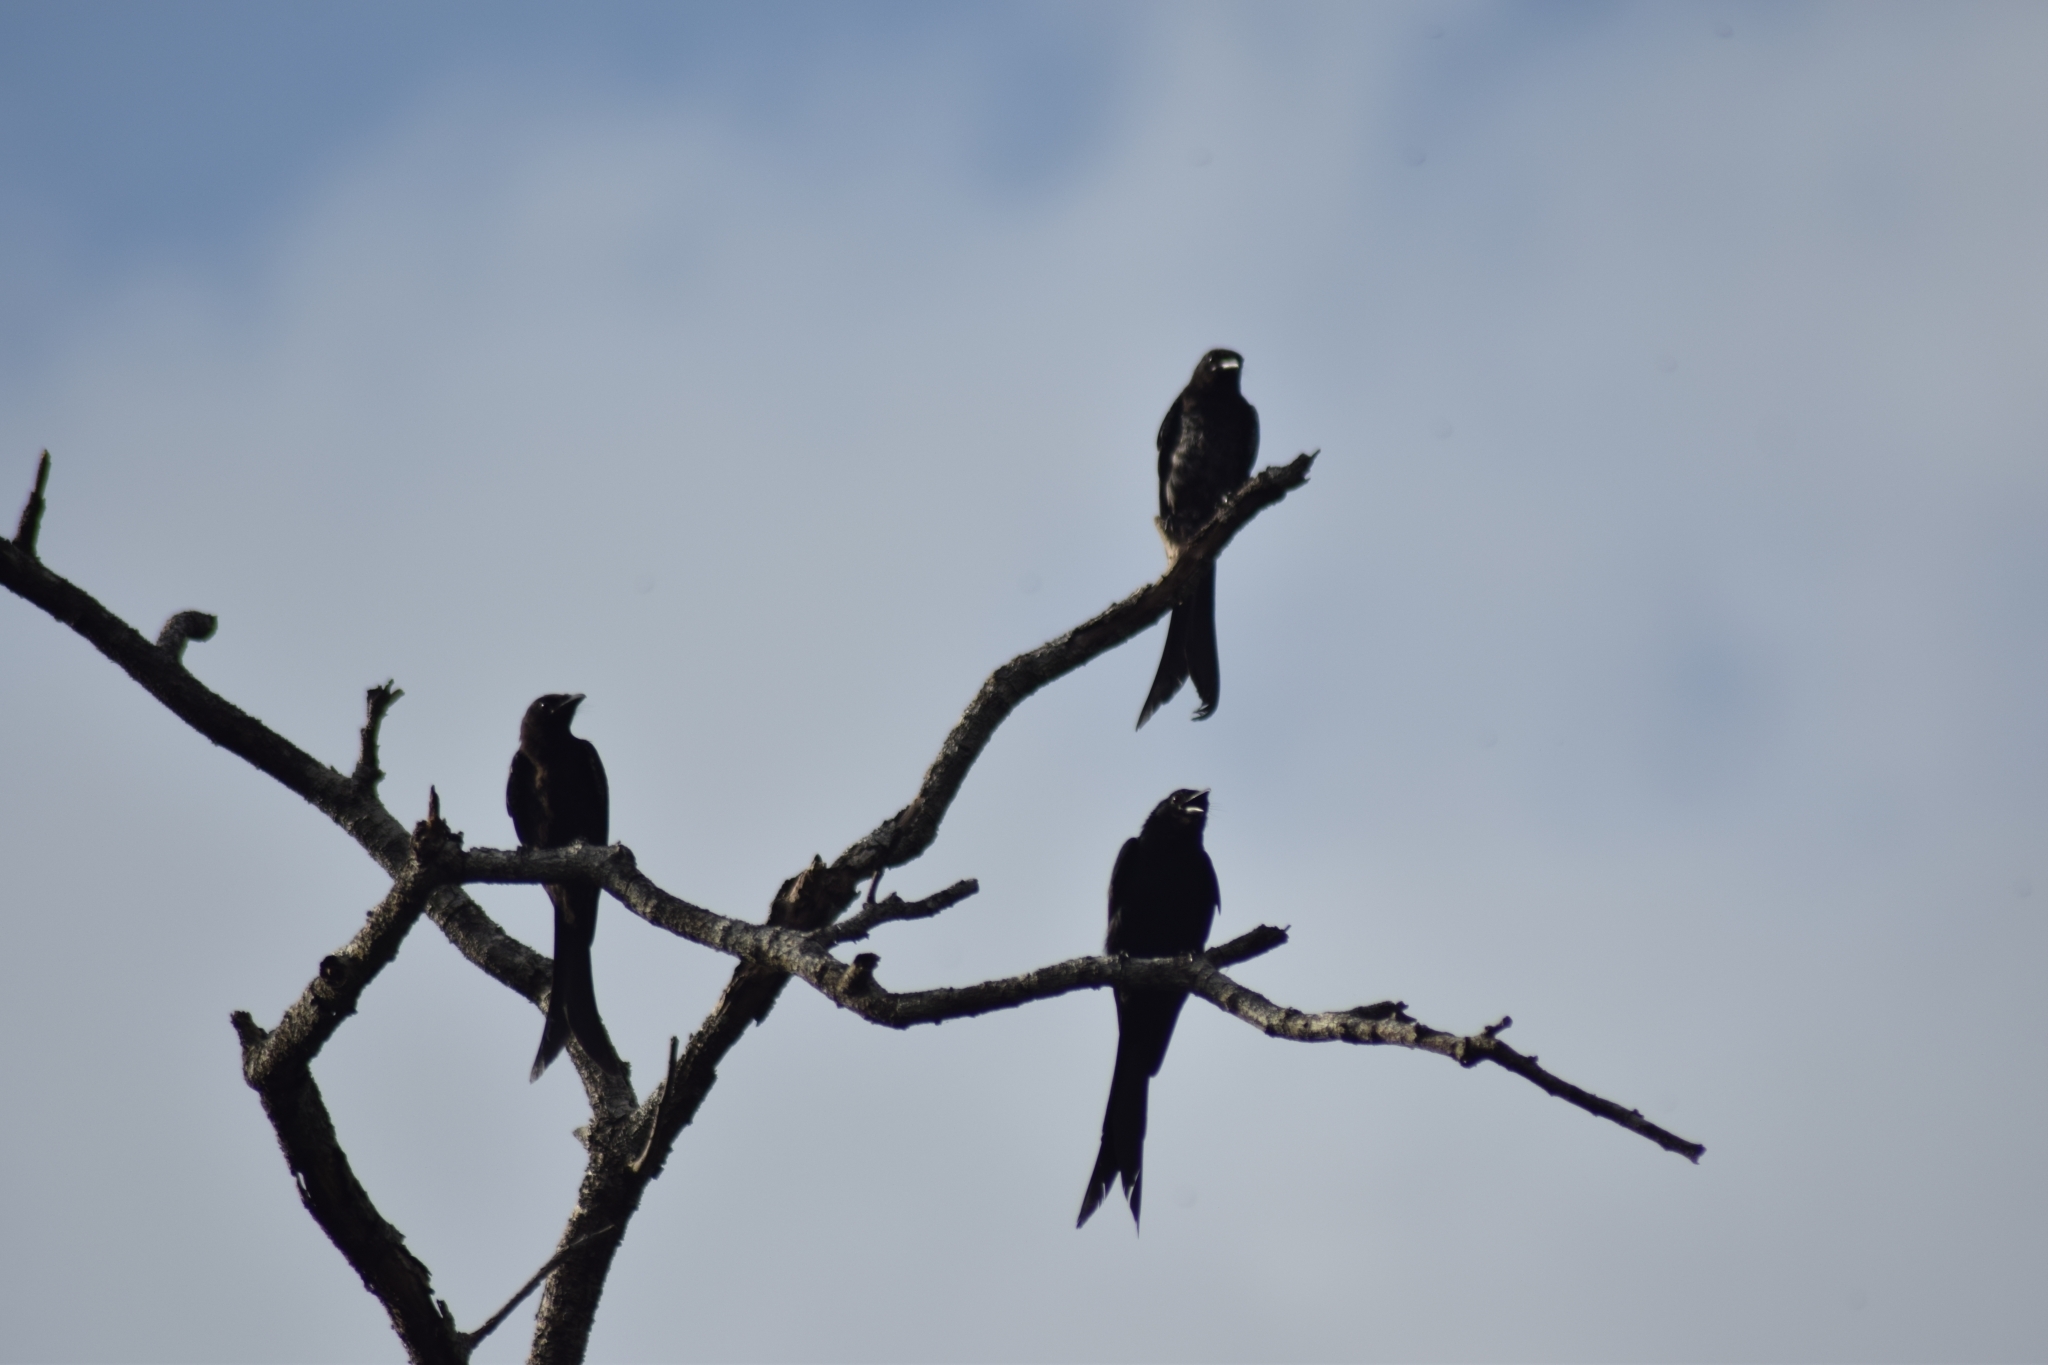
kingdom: Animalia
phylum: Chordata
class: Aves
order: Passeriformes
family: Dicruridae
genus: Dicrurus
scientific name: Dicrurus macrocercus
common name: Black drongo
